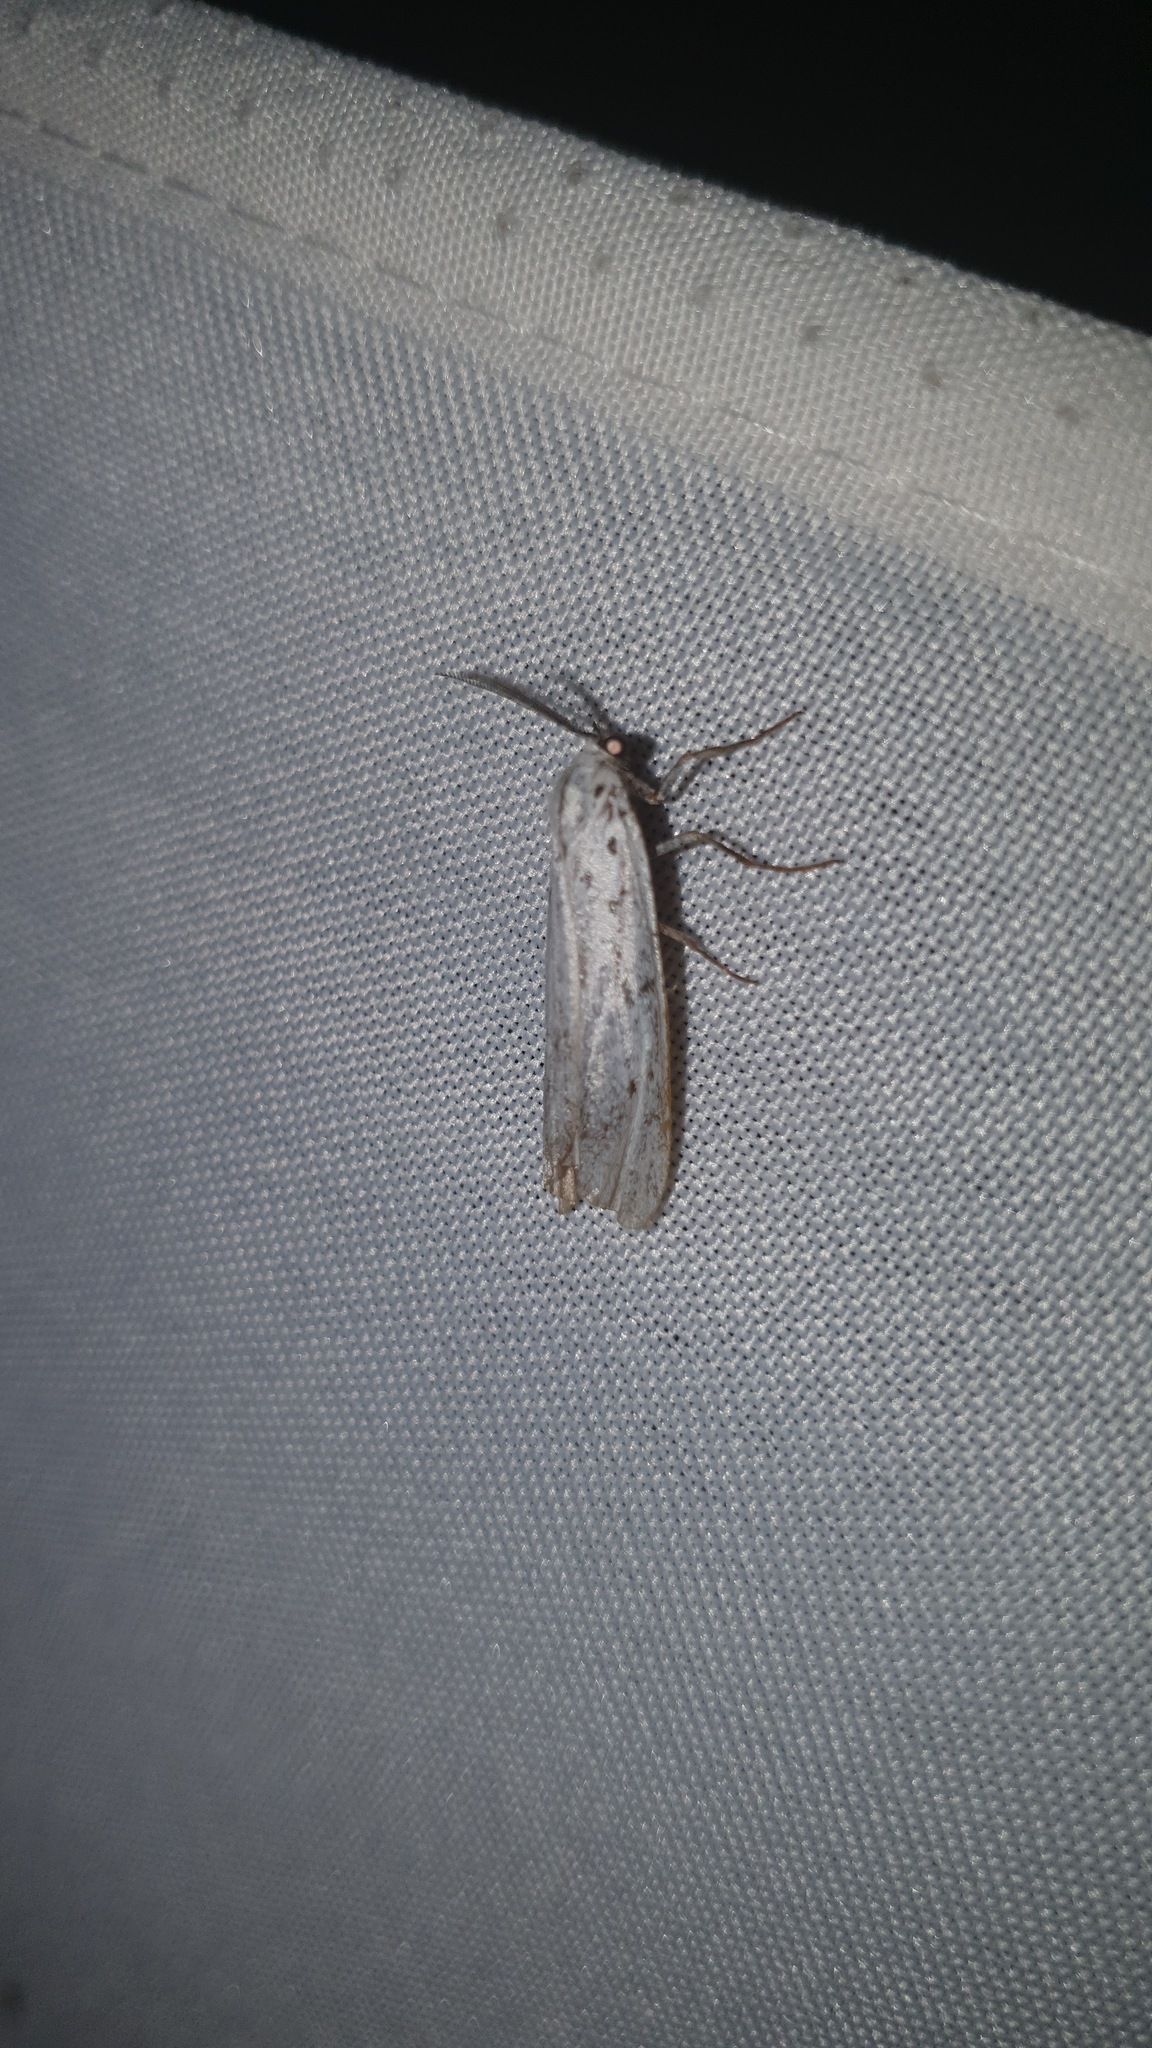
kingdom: Animalia
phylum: Arthropoda
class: Insecta
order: Lepidoptera
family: Erebidae
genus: Coscinia
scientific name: Coscinia cribraria
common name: Speckled footman
